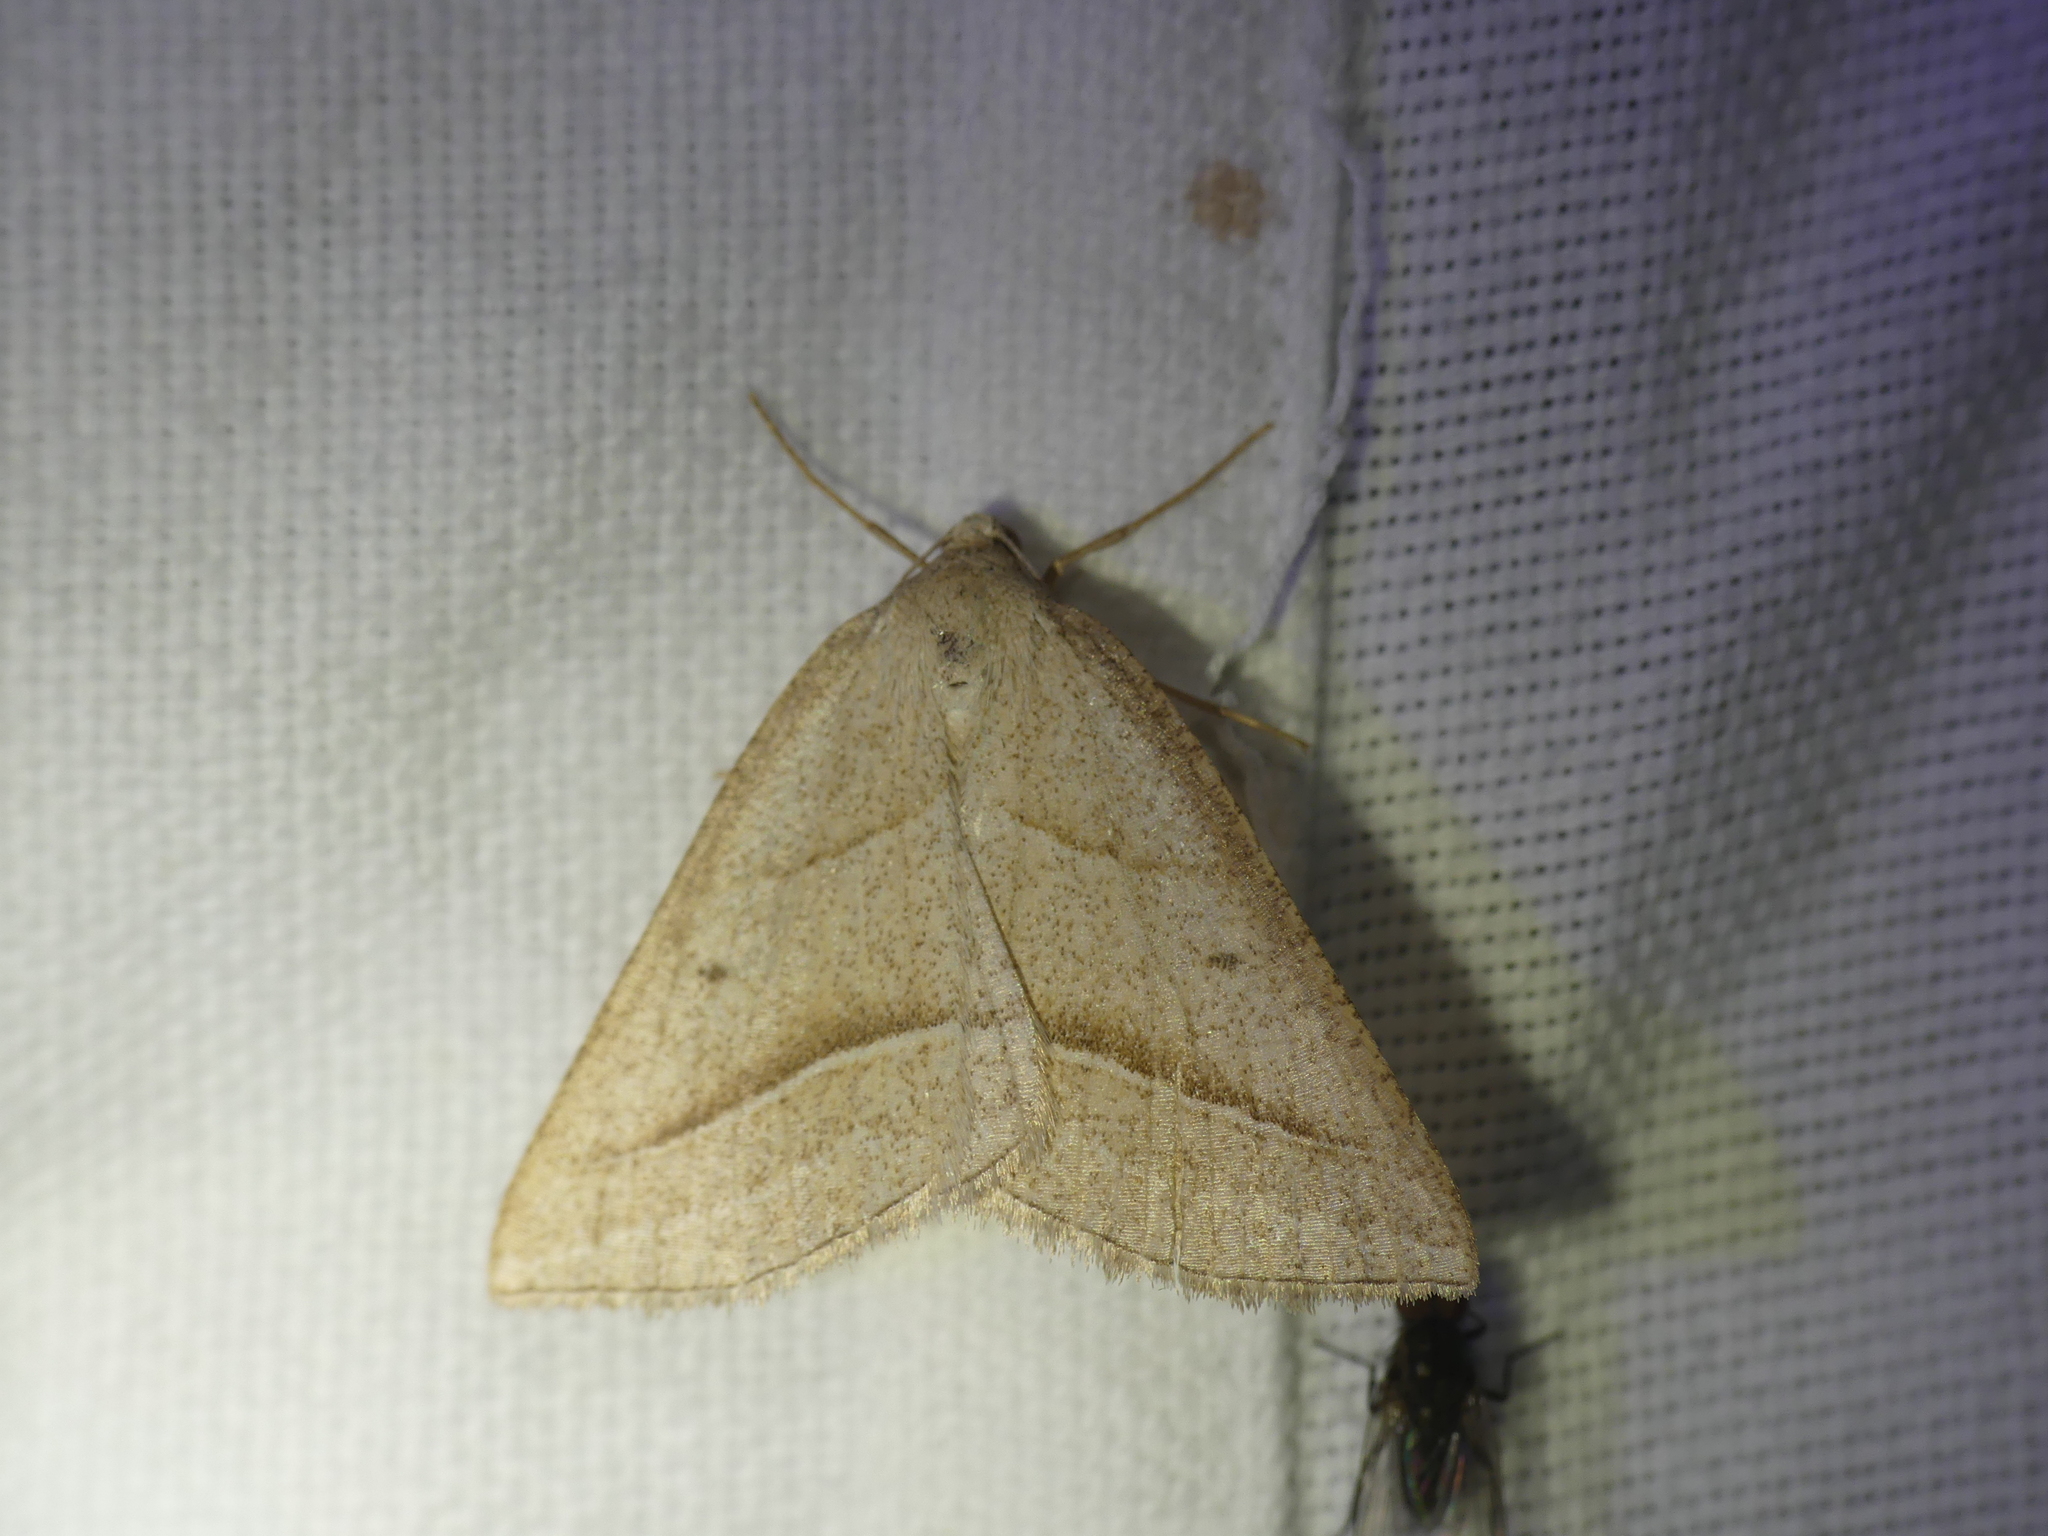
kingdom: Animalia
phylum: Arthropoda
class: Insecta
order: Lepidoptera
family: Pterophoridae
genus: Pterophorus
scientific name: Pterophorus Petrophora chlorosata
